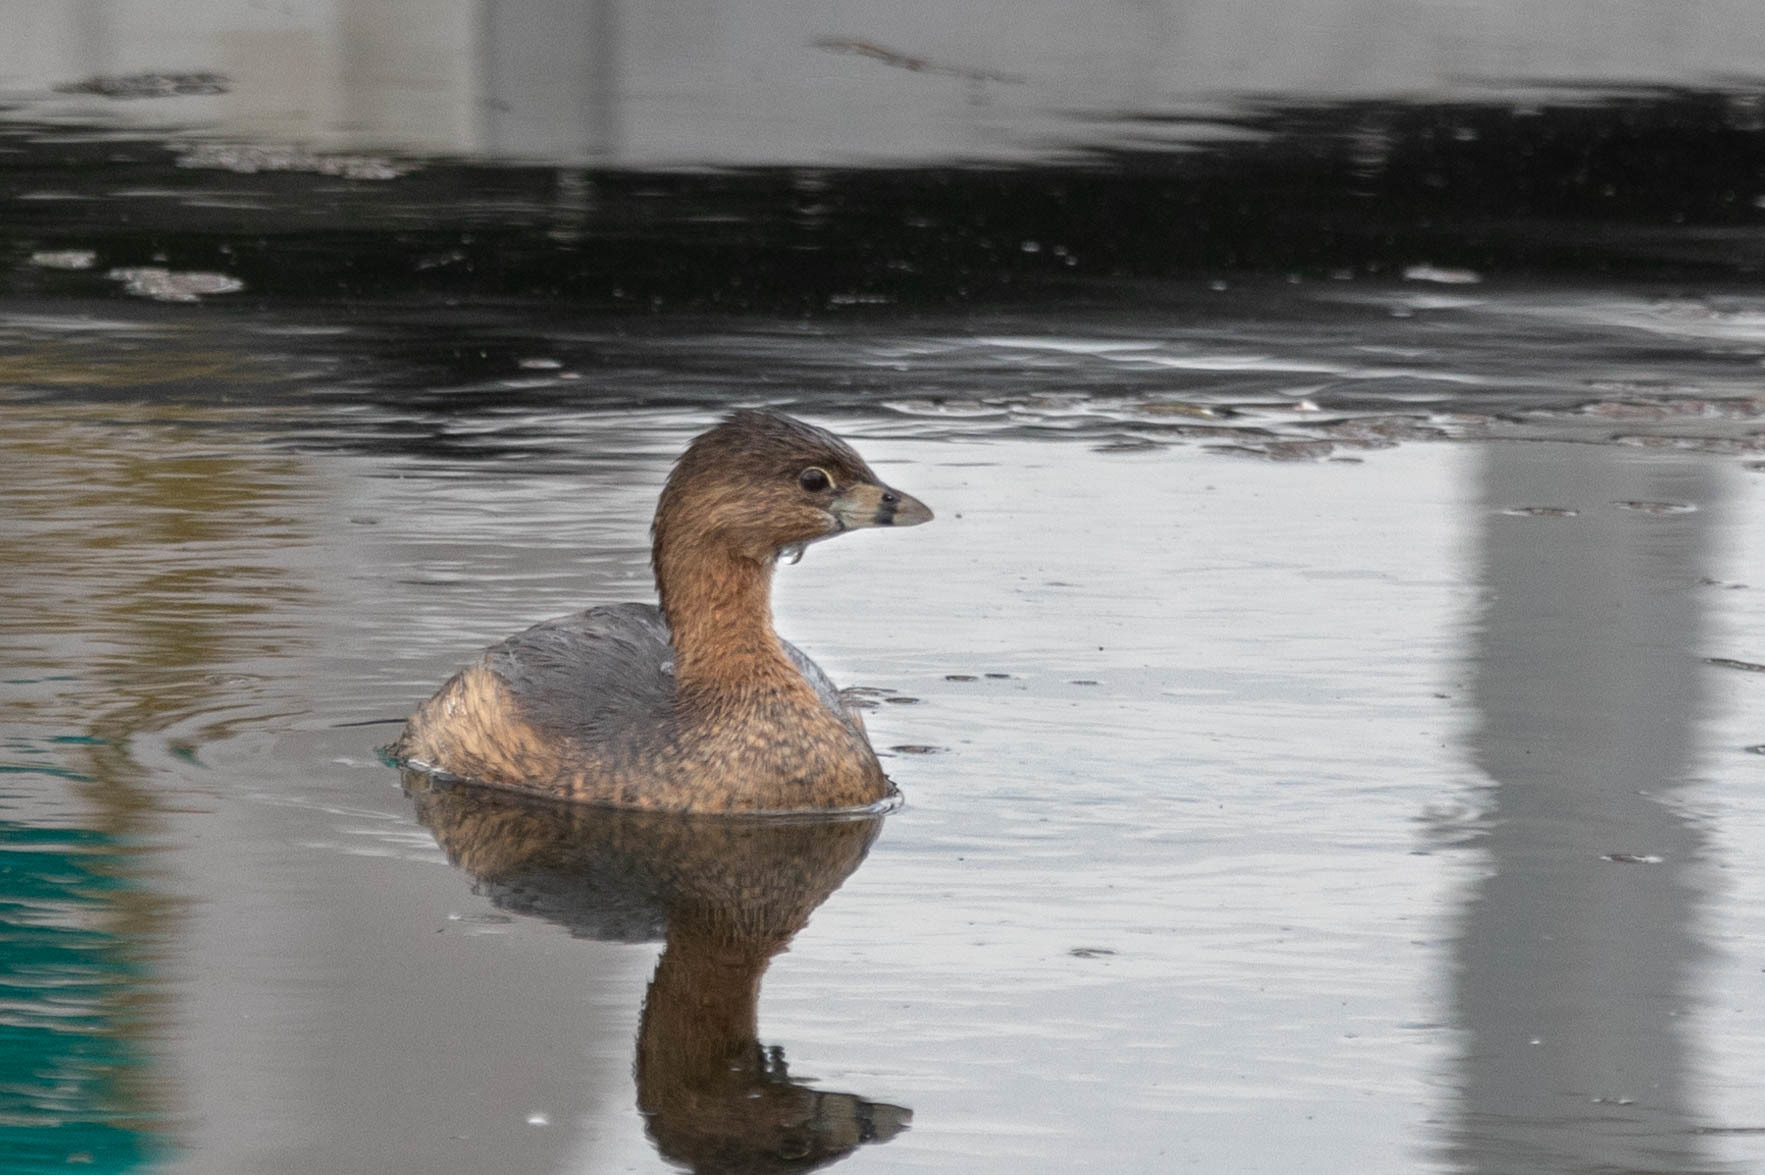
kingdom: Animalia
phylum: Chordata
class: Aves
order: Podicipediformes
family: Podicipedidae
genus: Podilymbus
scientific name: Podilymbus podiceps
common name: Pied-billed grebe
